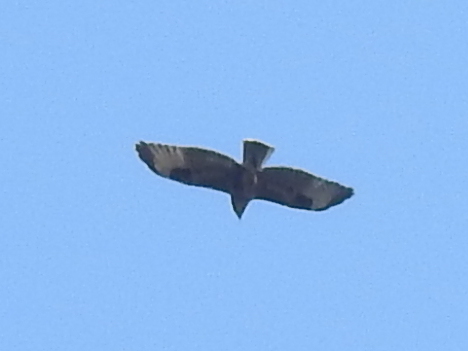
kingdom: Animalia
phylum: Chordata
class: Aves
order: Accipitriformes
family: Accipitridae
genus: Buteo
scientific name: Buteo buteo
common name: Common buzzard
